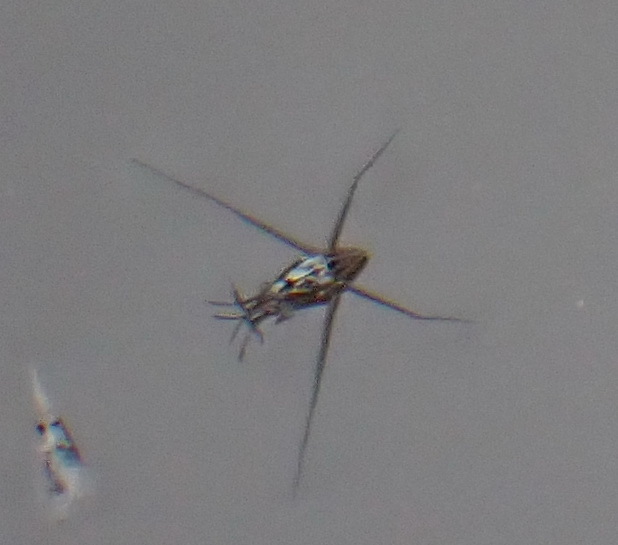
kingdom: Animalia
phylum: Arthropoda
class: Insecta
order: Hemiptera
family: Gerridae
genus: Gerris
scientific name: Gerris swakopensis
